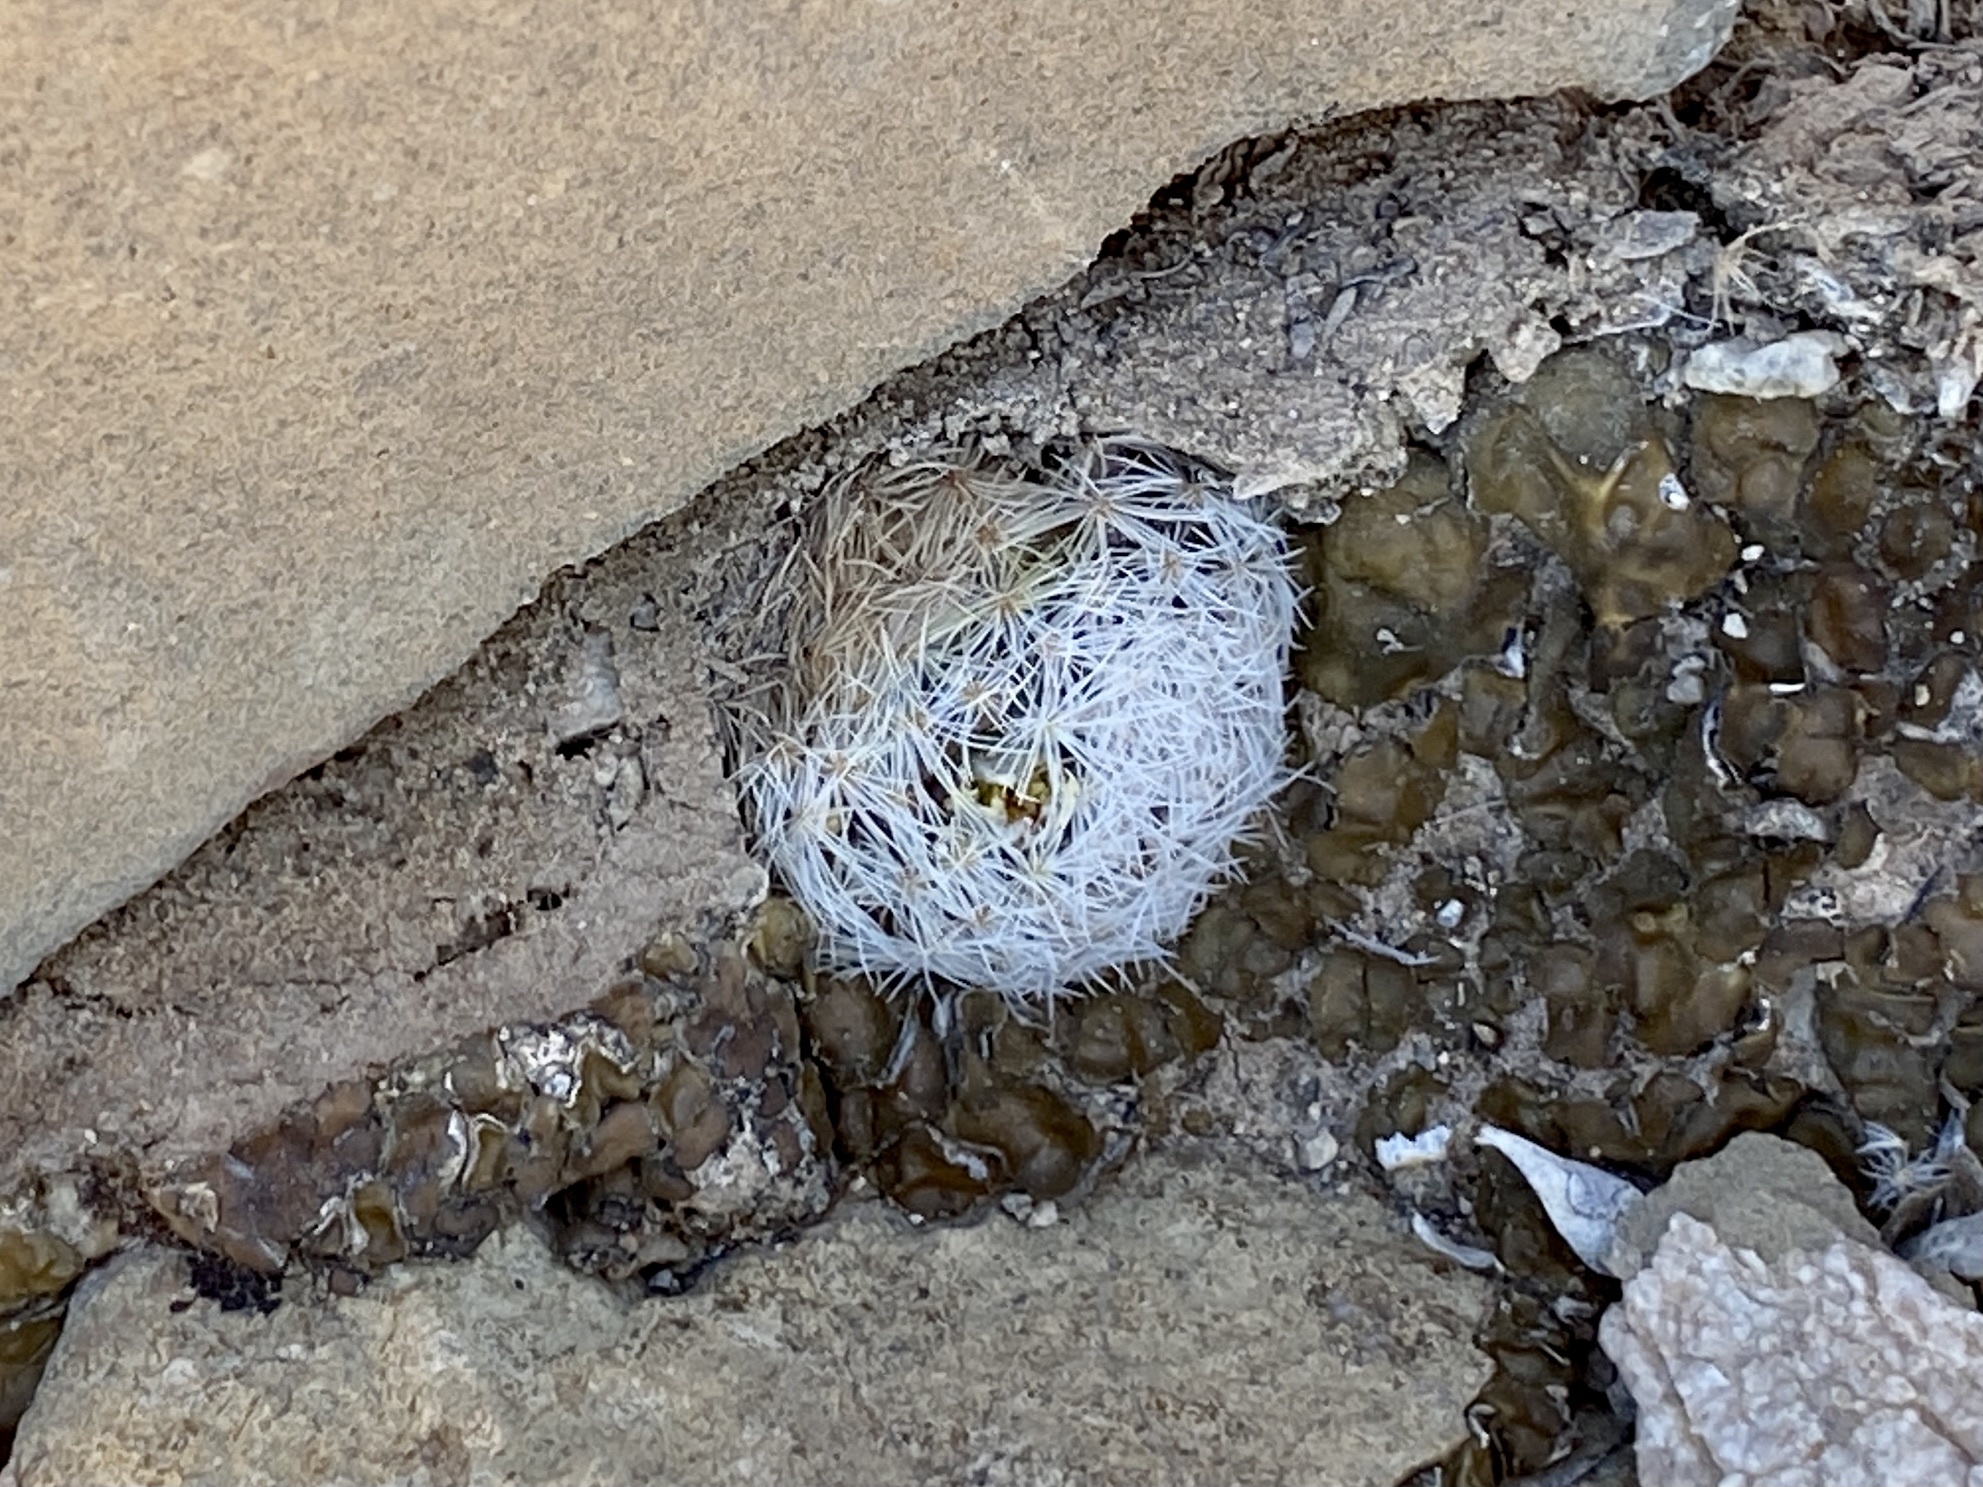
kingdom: Plantae
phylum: Tracheophyta
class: Magnoliopsida
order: Caryophyllales
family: Cactaceae
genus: Mammillaria
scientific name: Mammillaria lasiacantha
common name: Lace-spine nipple cactus
